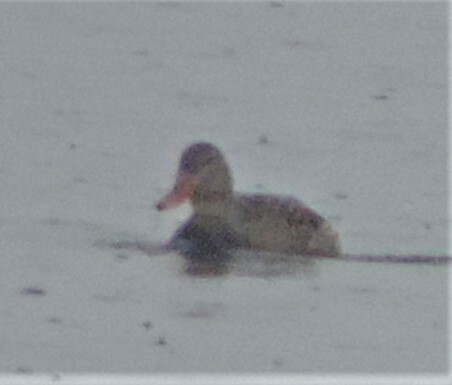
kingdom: Animalia
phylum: Chordata
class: Aves
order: Anseriformes
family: Anatidae
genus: Anas
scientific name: Anas platyrhynchos
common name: Mallard
